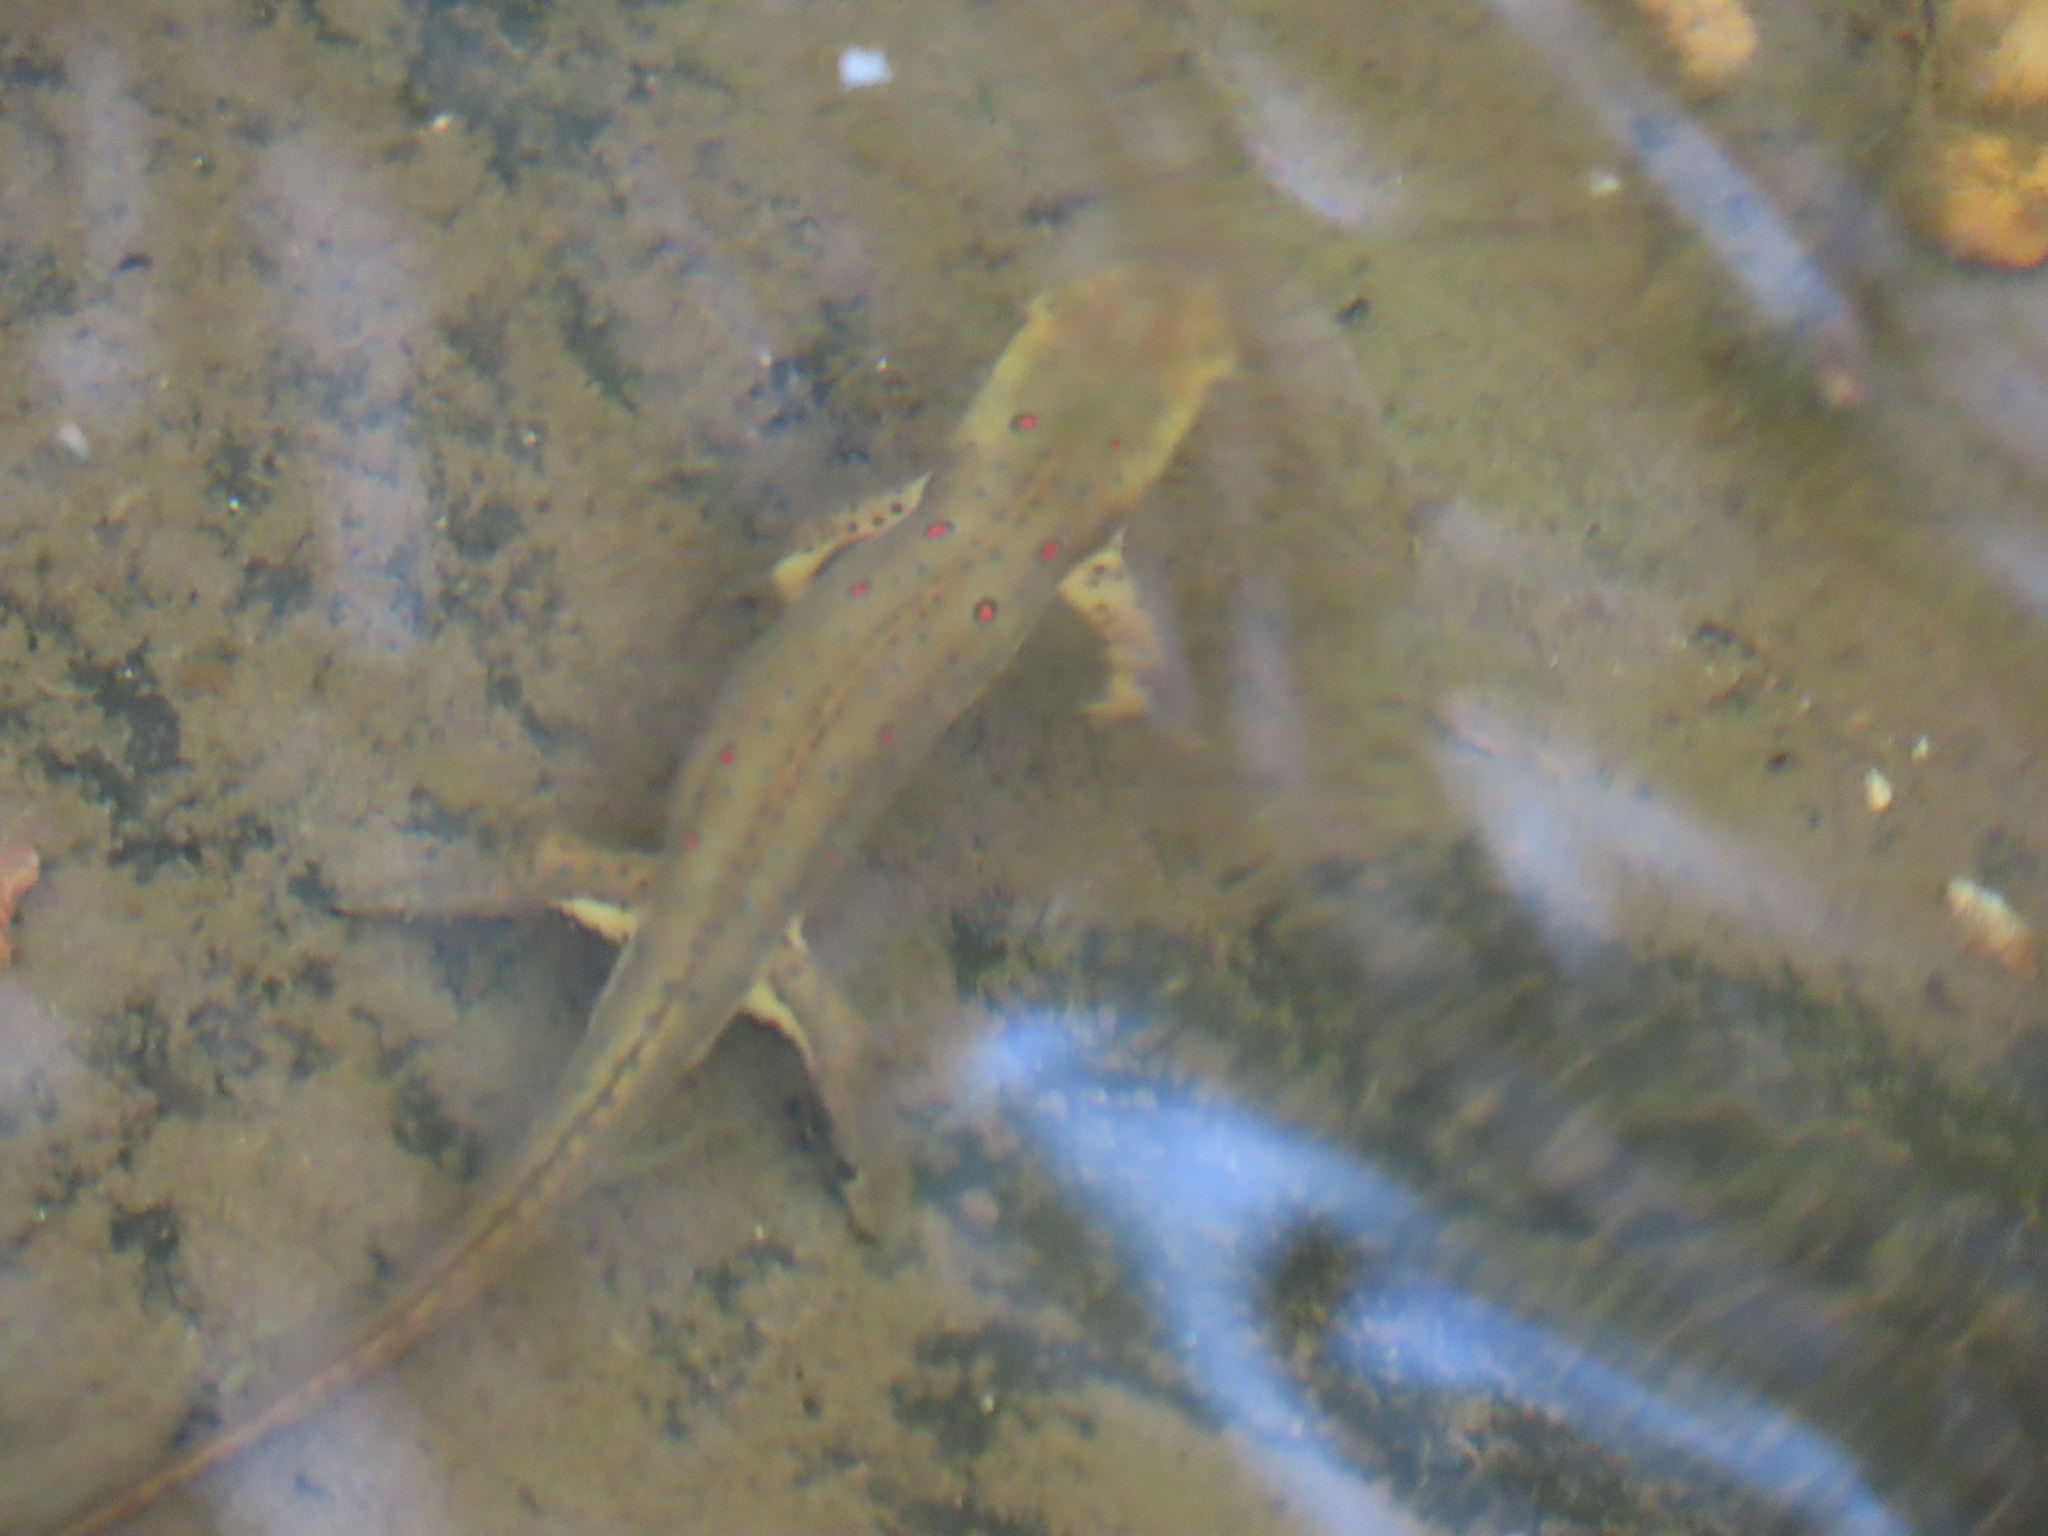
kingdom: Animalia
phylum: Chordata
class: Amphibia
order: Caudata
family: Salamandridae
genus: Notophthalmus
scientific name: Notophthalmus viridescens
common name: Eastern newt
